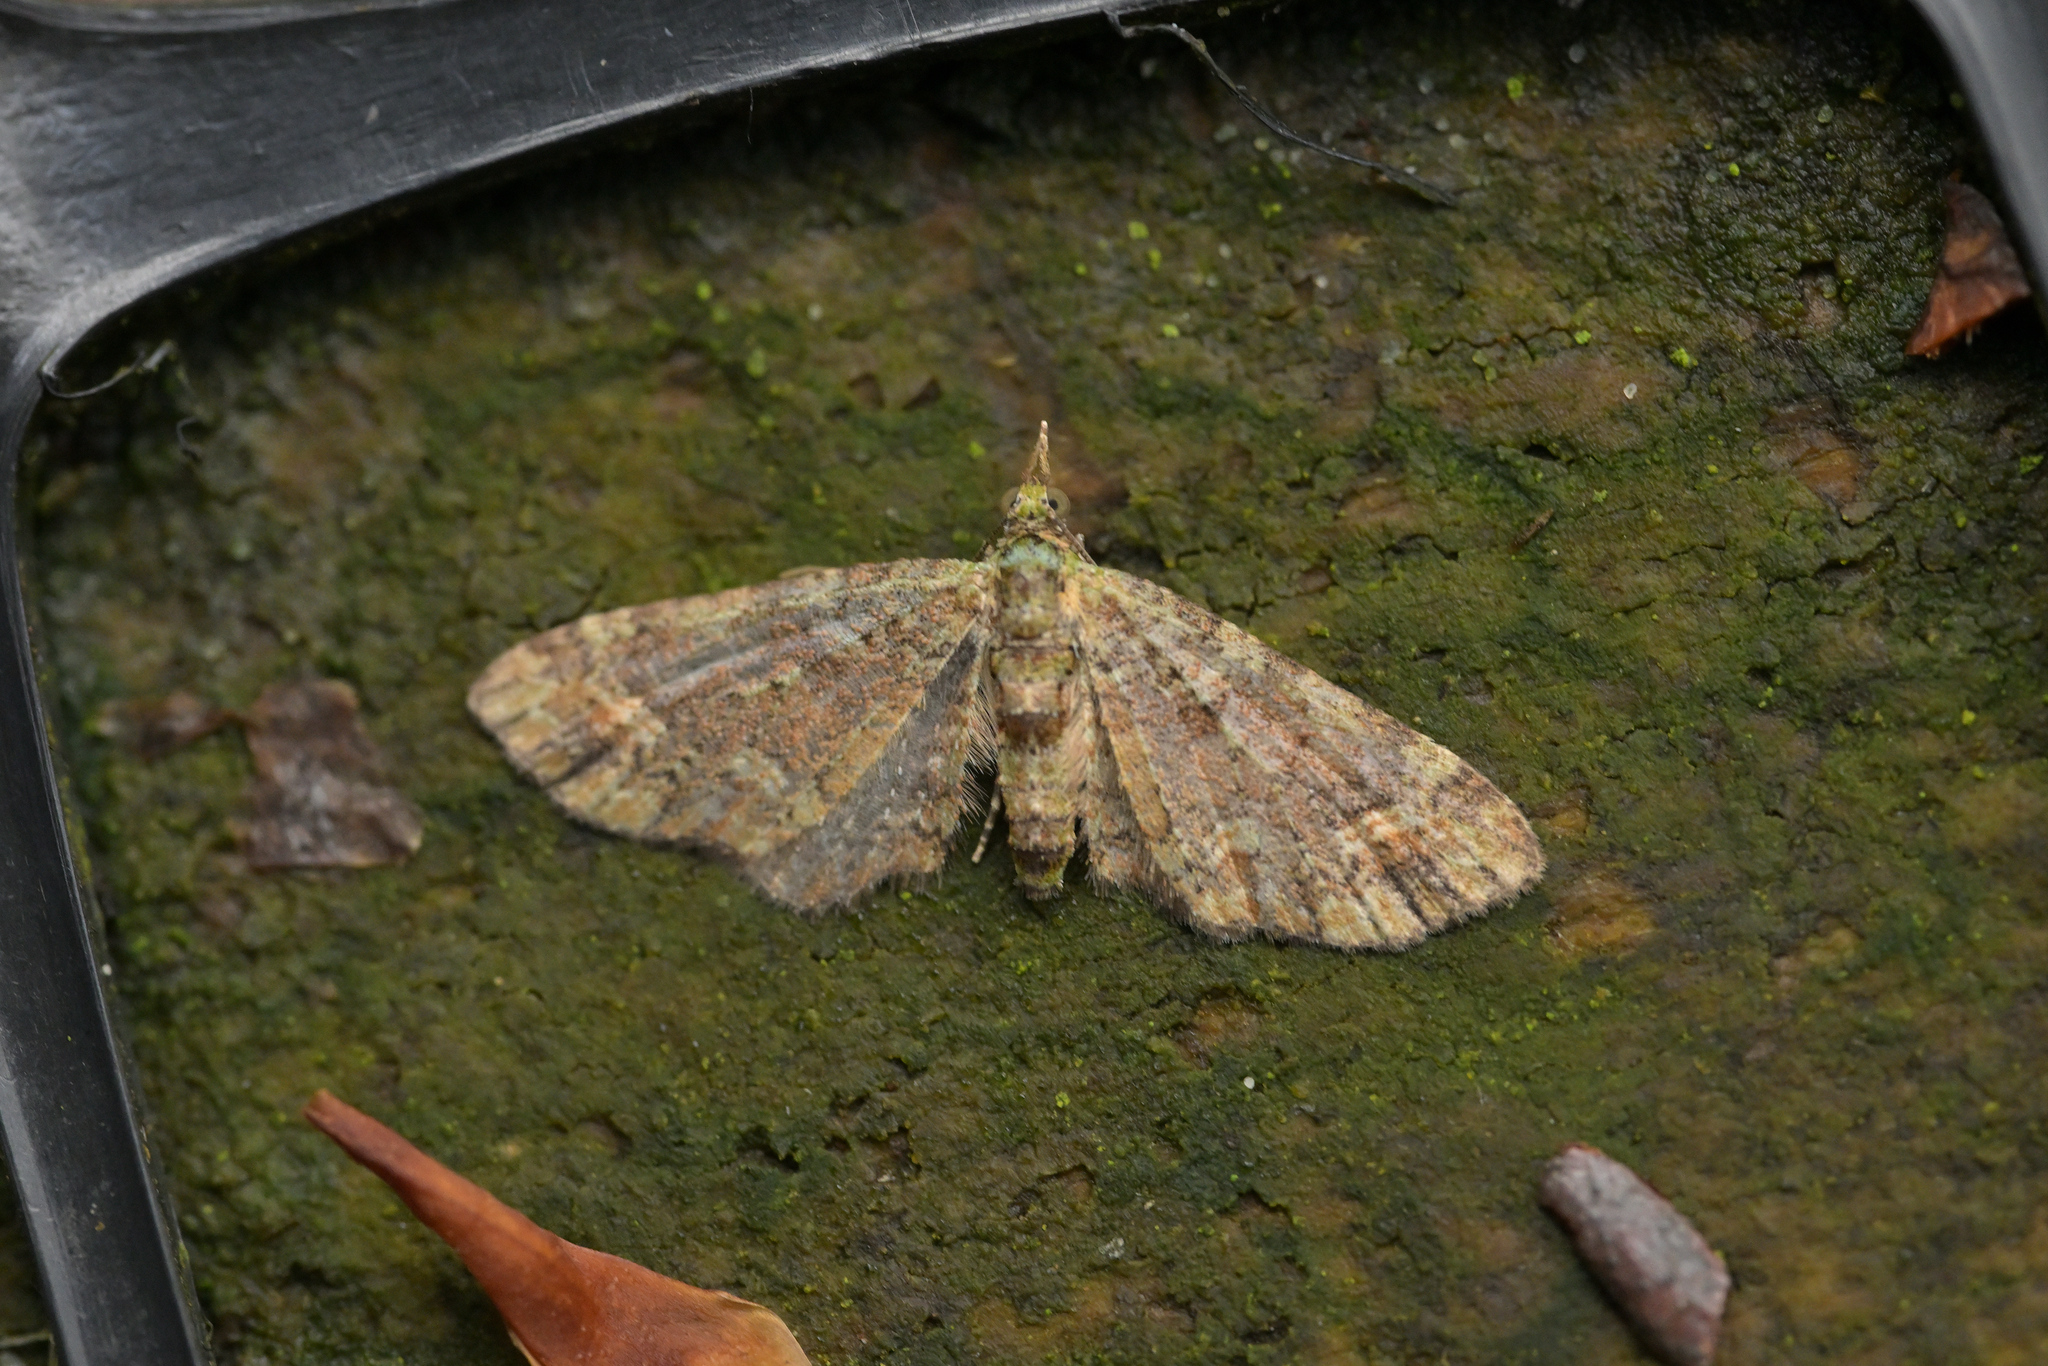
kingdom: Animalia
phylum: Arthropoda
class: Insecta
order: Lepidoptera
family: Geometridae
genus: Idaea
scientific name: Idaea mutanda
